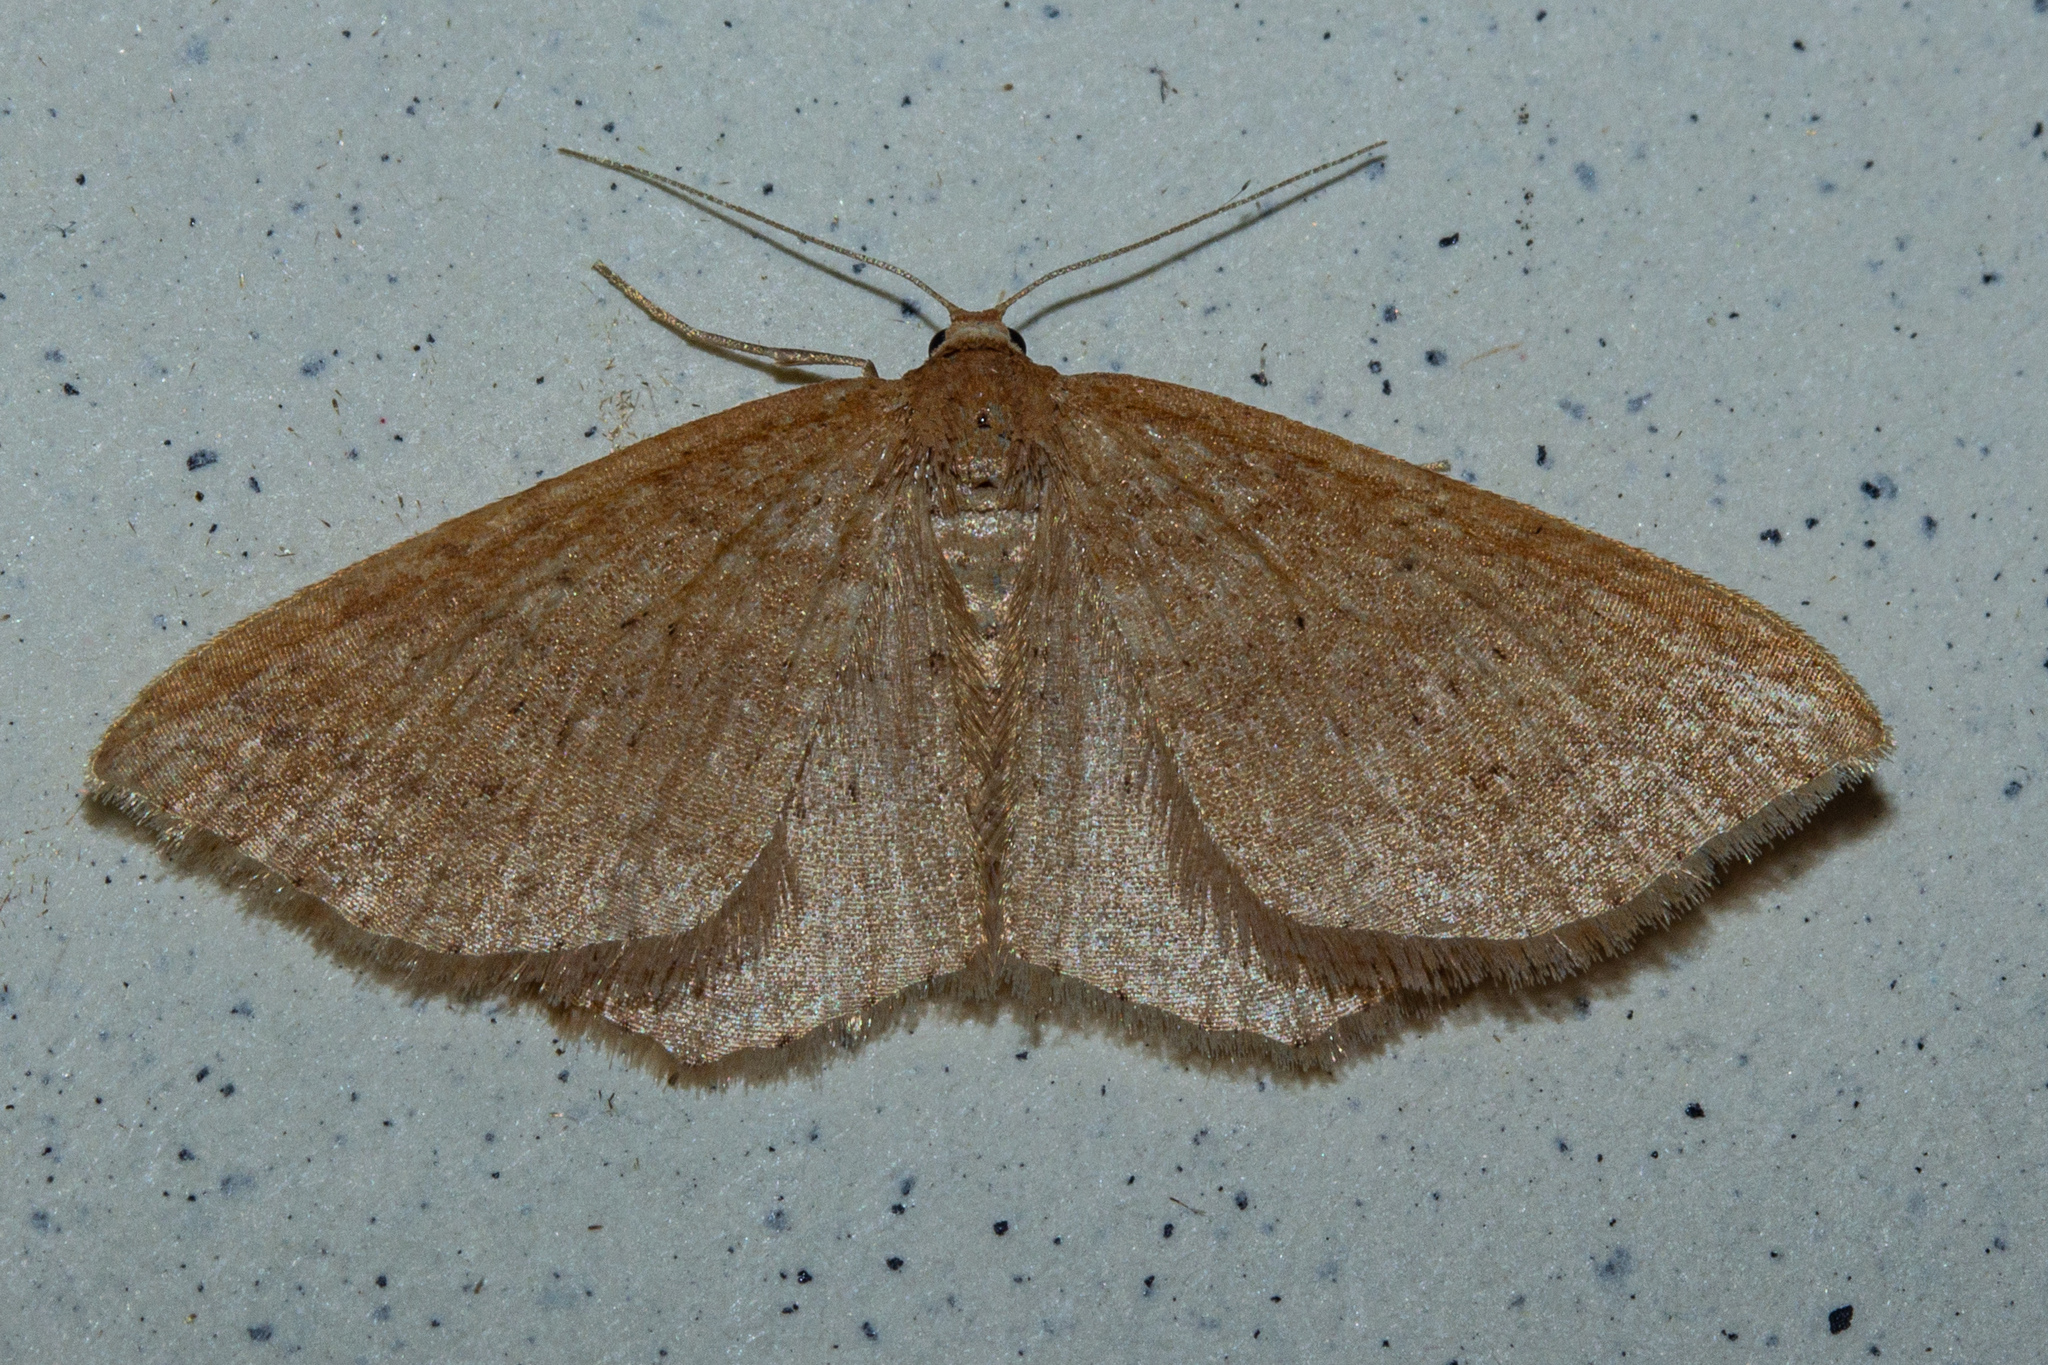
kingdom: Animalia
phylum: Arthropoda
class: Insecta
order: Lepidoptera
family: Geometridae
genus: Epicyme
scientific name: Epicyme rubropunctaria
